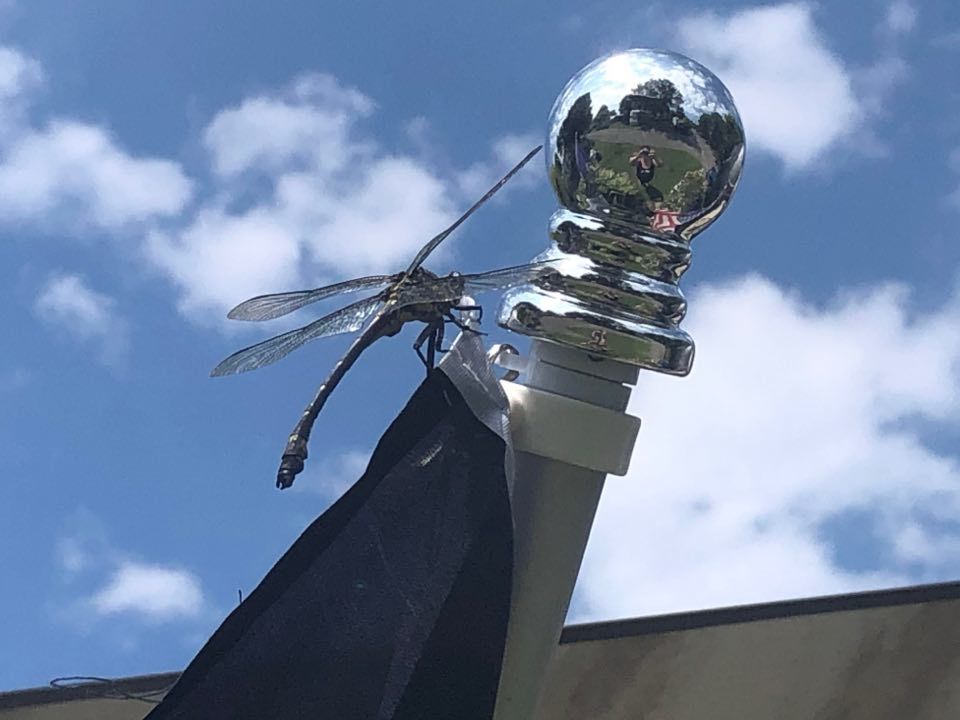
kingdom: Animalia
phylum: Arthropoda
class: Insecta
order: Odonata
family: Gomphidae
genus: Hagenius
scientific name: Hagenius brevistylus
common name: Dragonhunter
